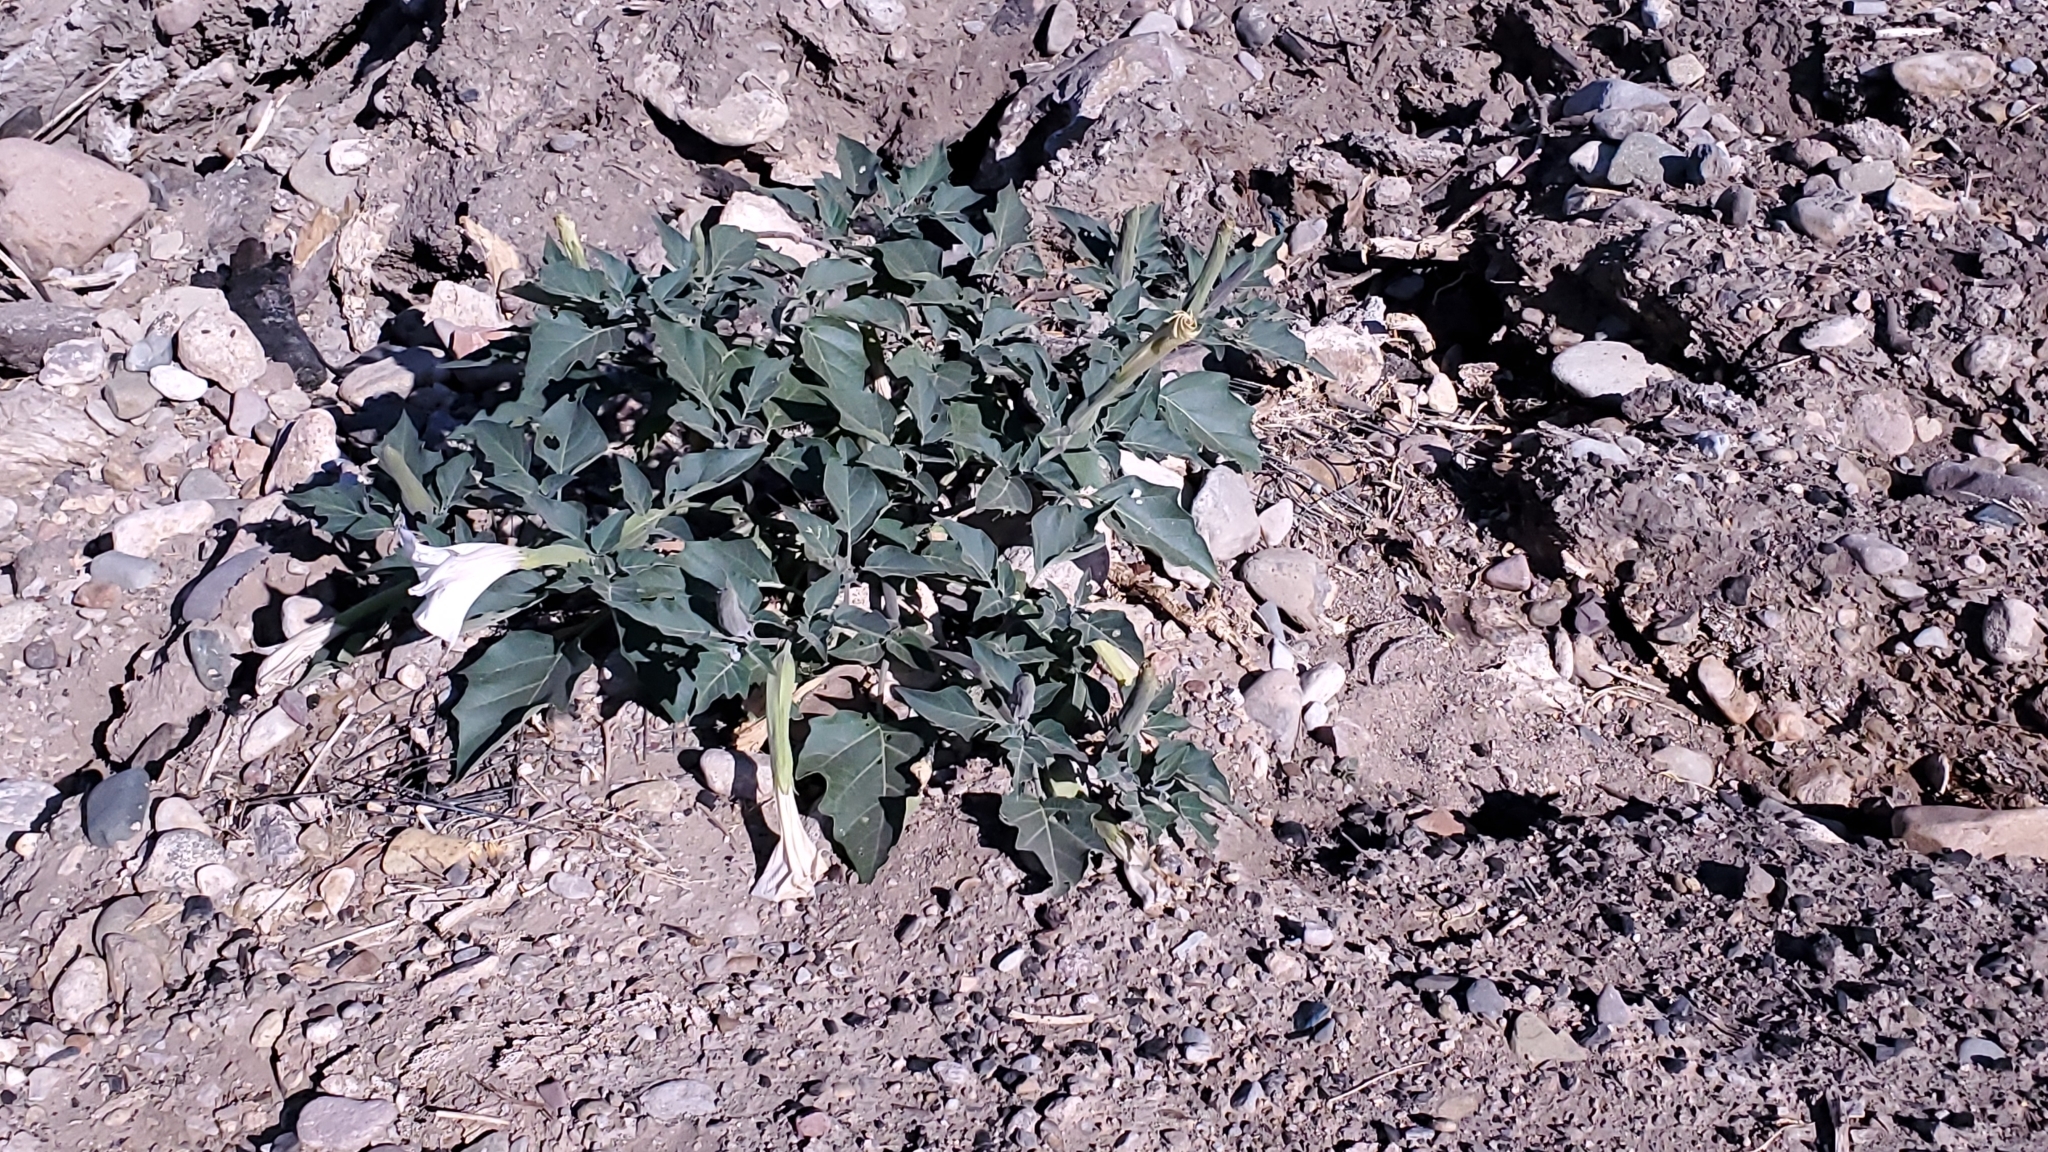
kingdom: Plantae
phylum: Tracheophyta
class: Magnoliopsida
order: Solanales
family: Solanaceae
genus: Datura
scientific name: Datura wrightii
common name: Sacred thorn-apple
